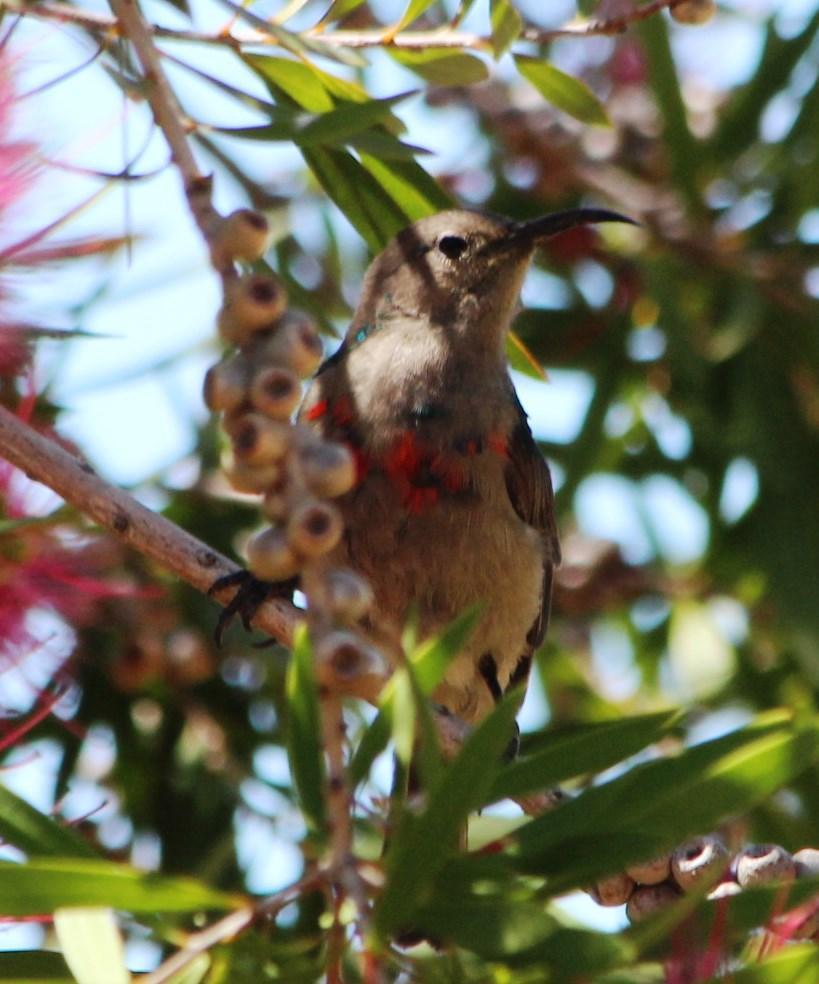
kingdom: Animalia
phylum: Chordata
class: Aves
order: Passeriformes
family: Nectariniidae
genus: Cinnyris
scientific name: Cinnyris chalybeus
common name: Southern double-collared sunbird
